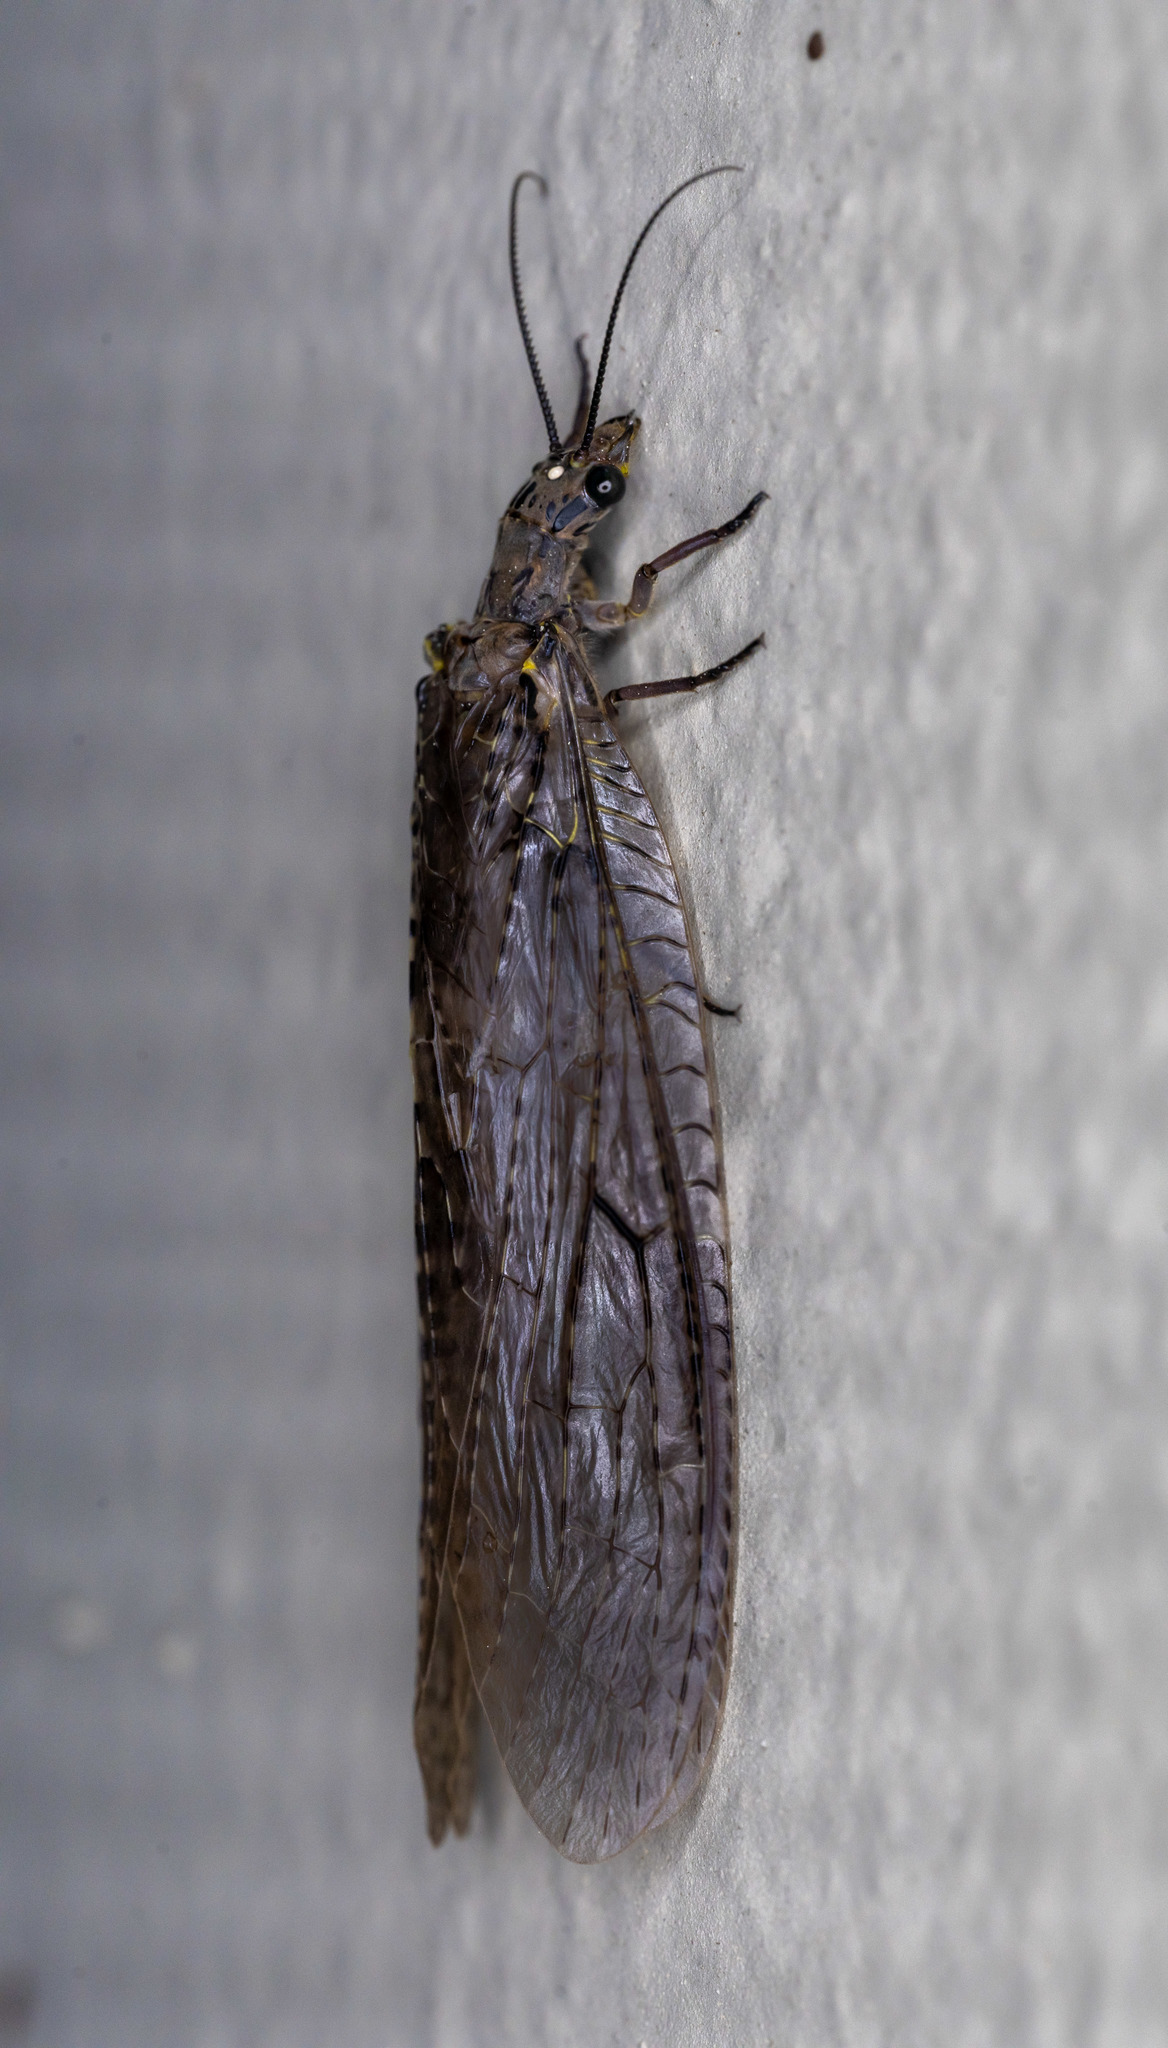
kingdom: Animalia
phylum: Arthropoda
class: Insecta
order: Megaloptera
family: Corydalidae
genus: Chauliodes
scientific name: Chauliodes rastricornis
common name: Spring fishfly
